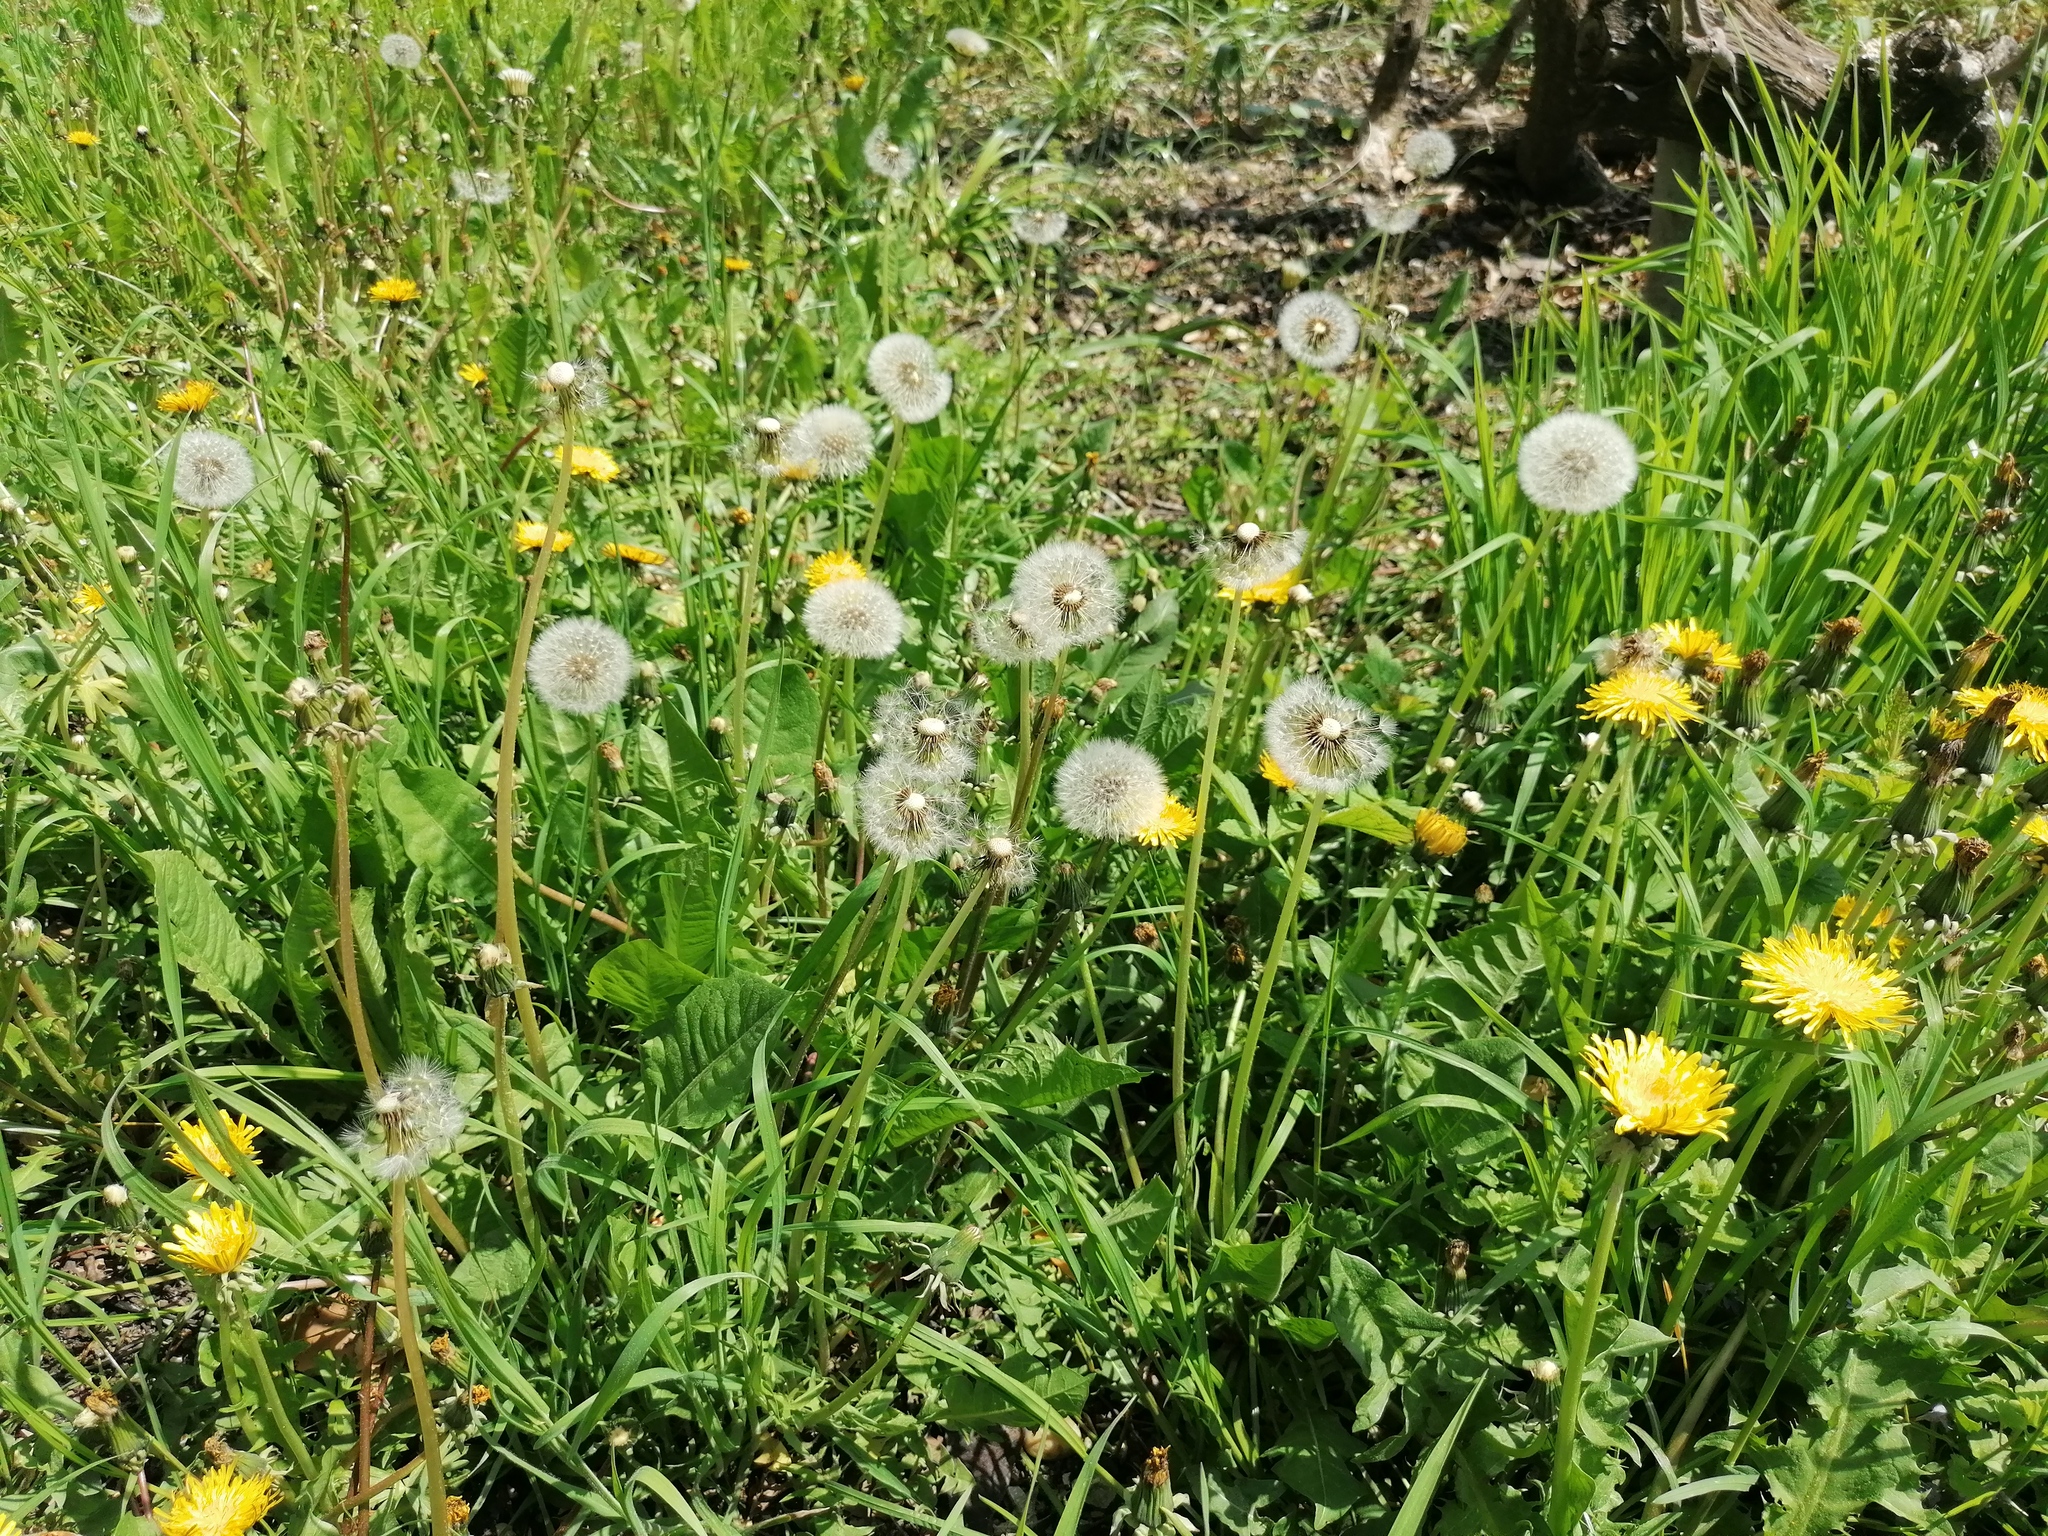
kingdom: Plantae
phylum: Tracheophyta
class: Magnoliopsida
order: Asterales
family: Asteraceae
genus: Taraxacum
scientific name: Taraxacum
